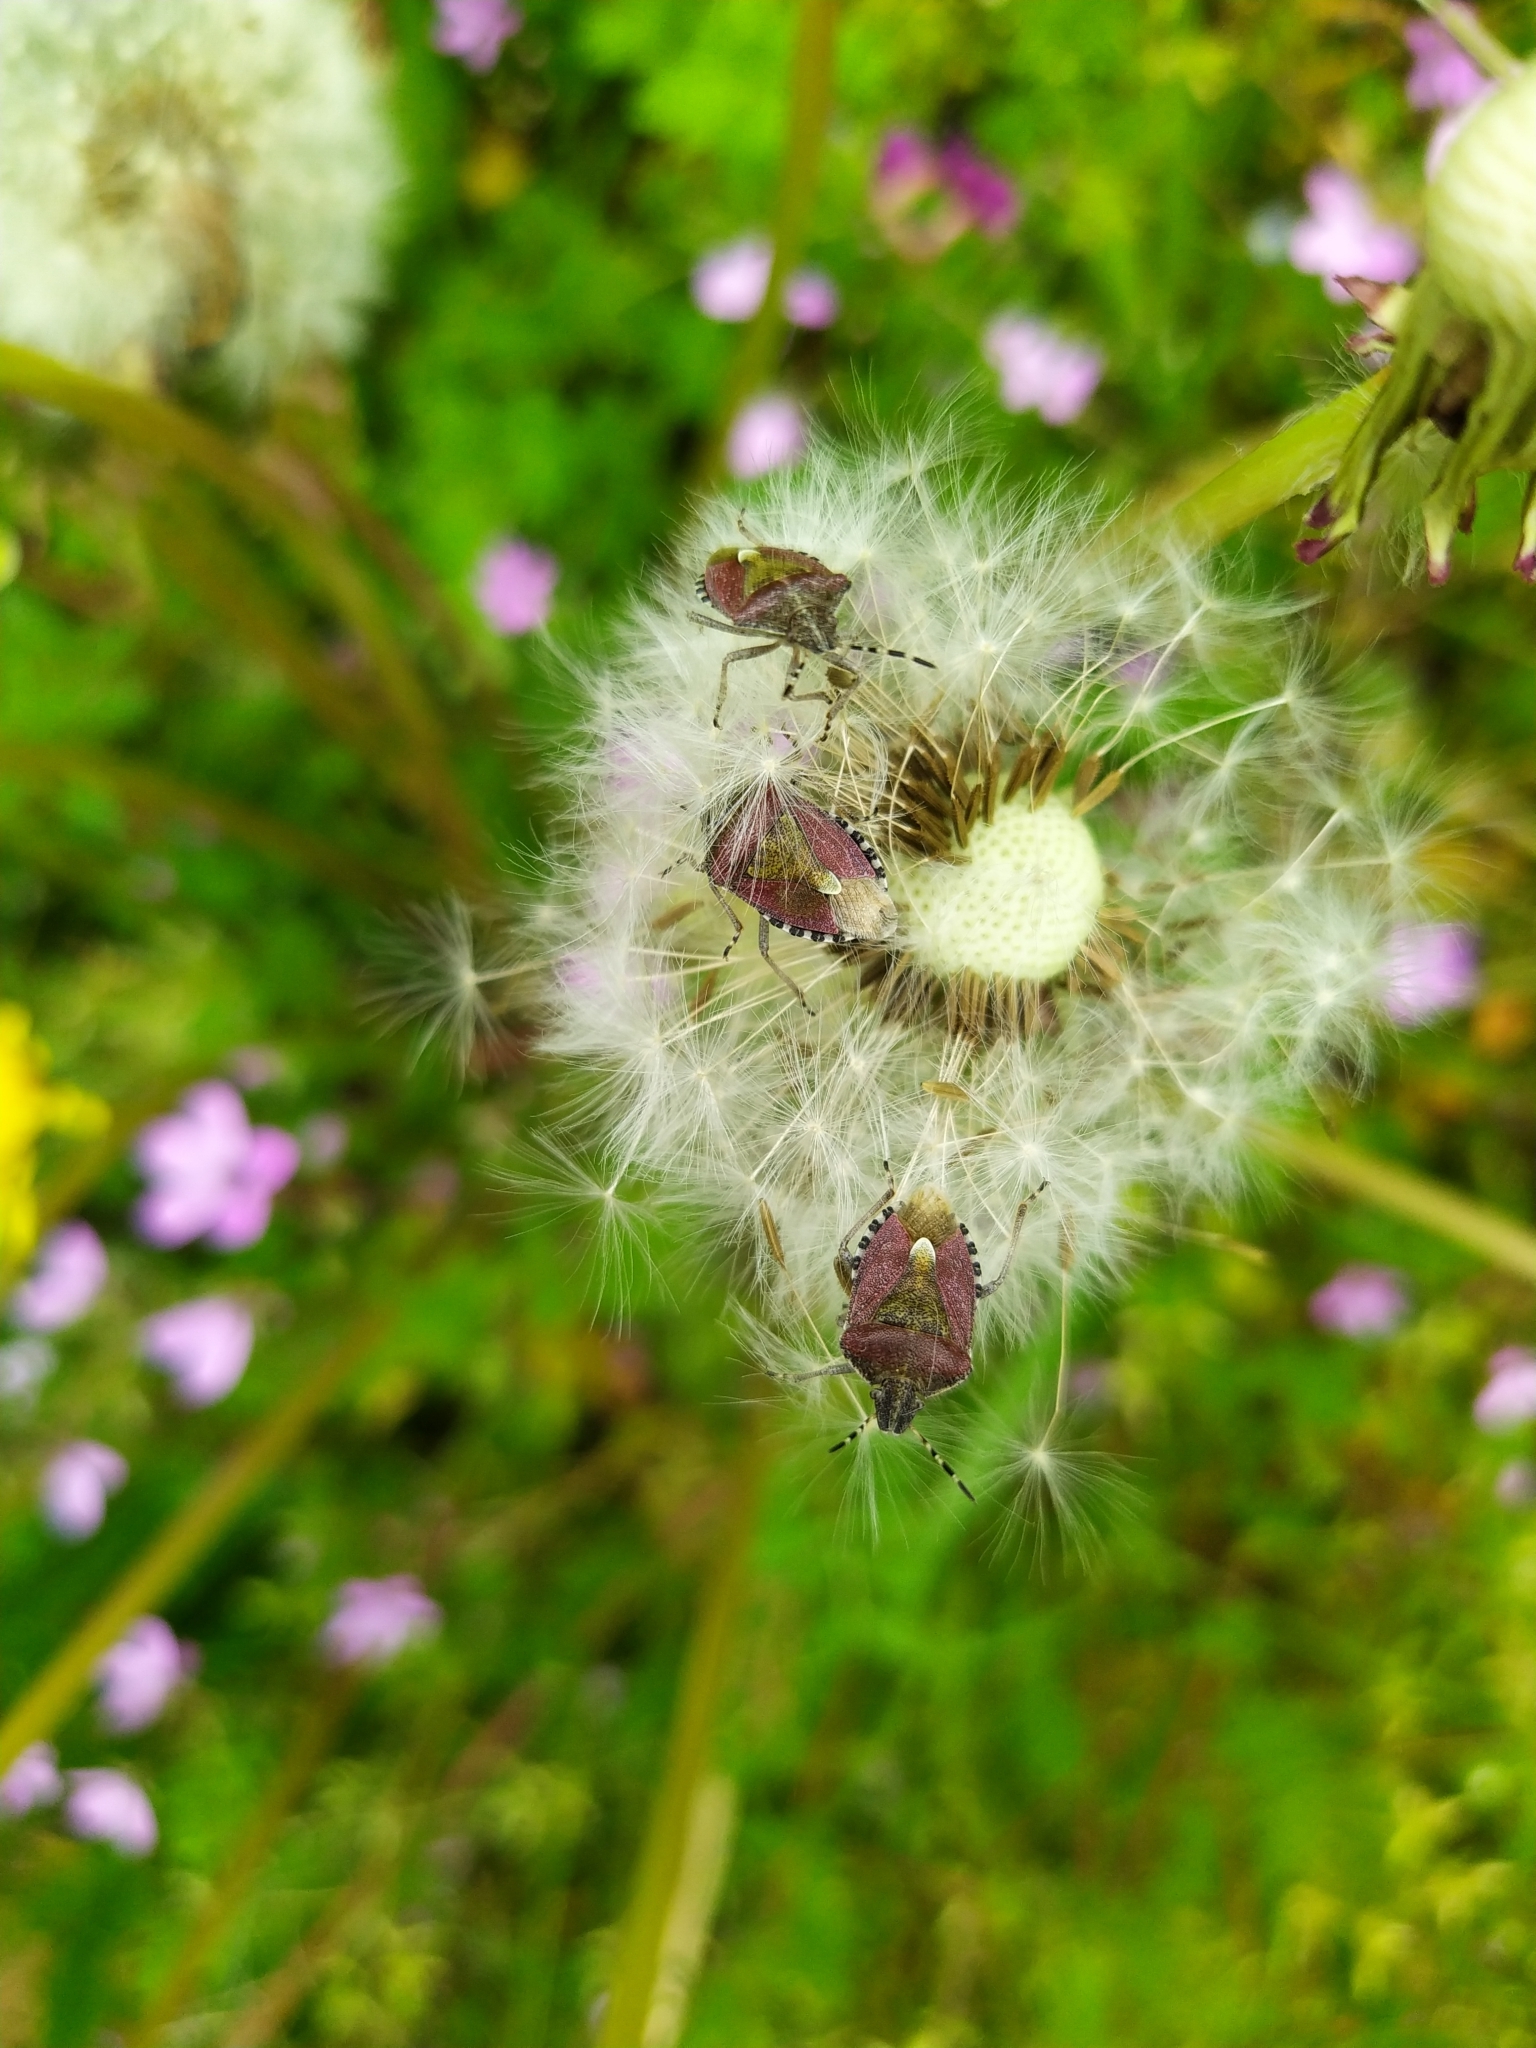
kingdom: Animalia
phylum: Arthropoda
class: Insecta
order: Hemiptera
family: Pentatomidae
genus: Dolycoris
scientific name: Dolycoris baccarum
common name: Sloe bug
